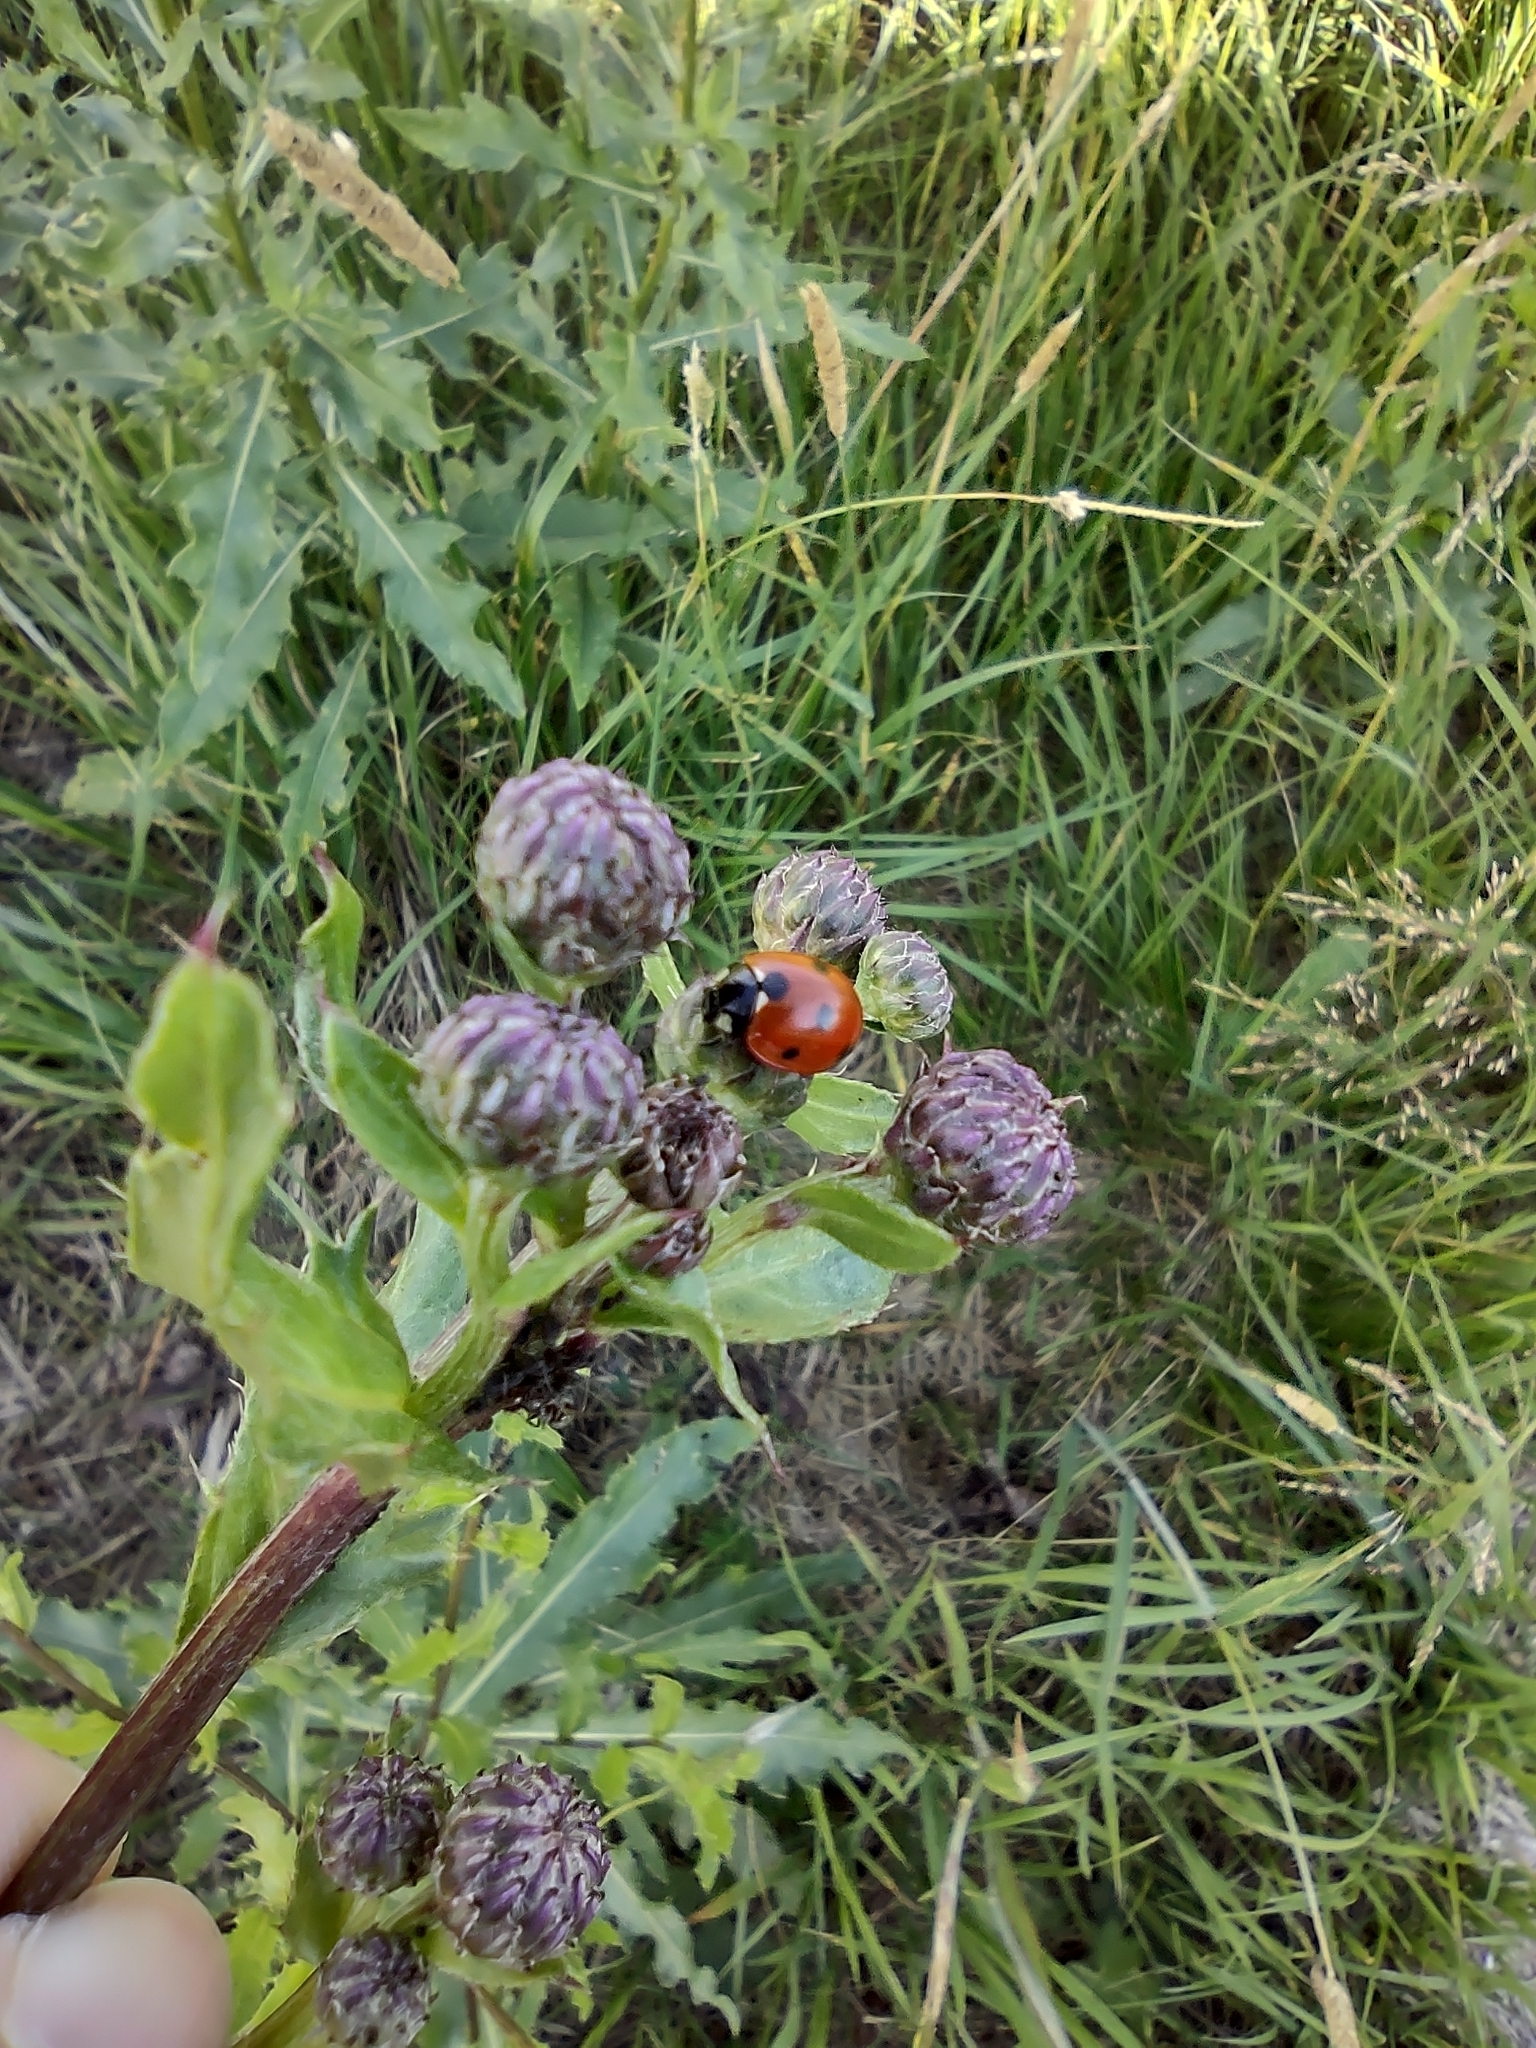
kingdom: Animalia
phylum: Arthropoda
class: Insecta
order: Coleoptera
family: Coccinellidae
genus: Coccinella
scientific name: Coccinella septempunctata
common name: Sevenspotted lady beetle
